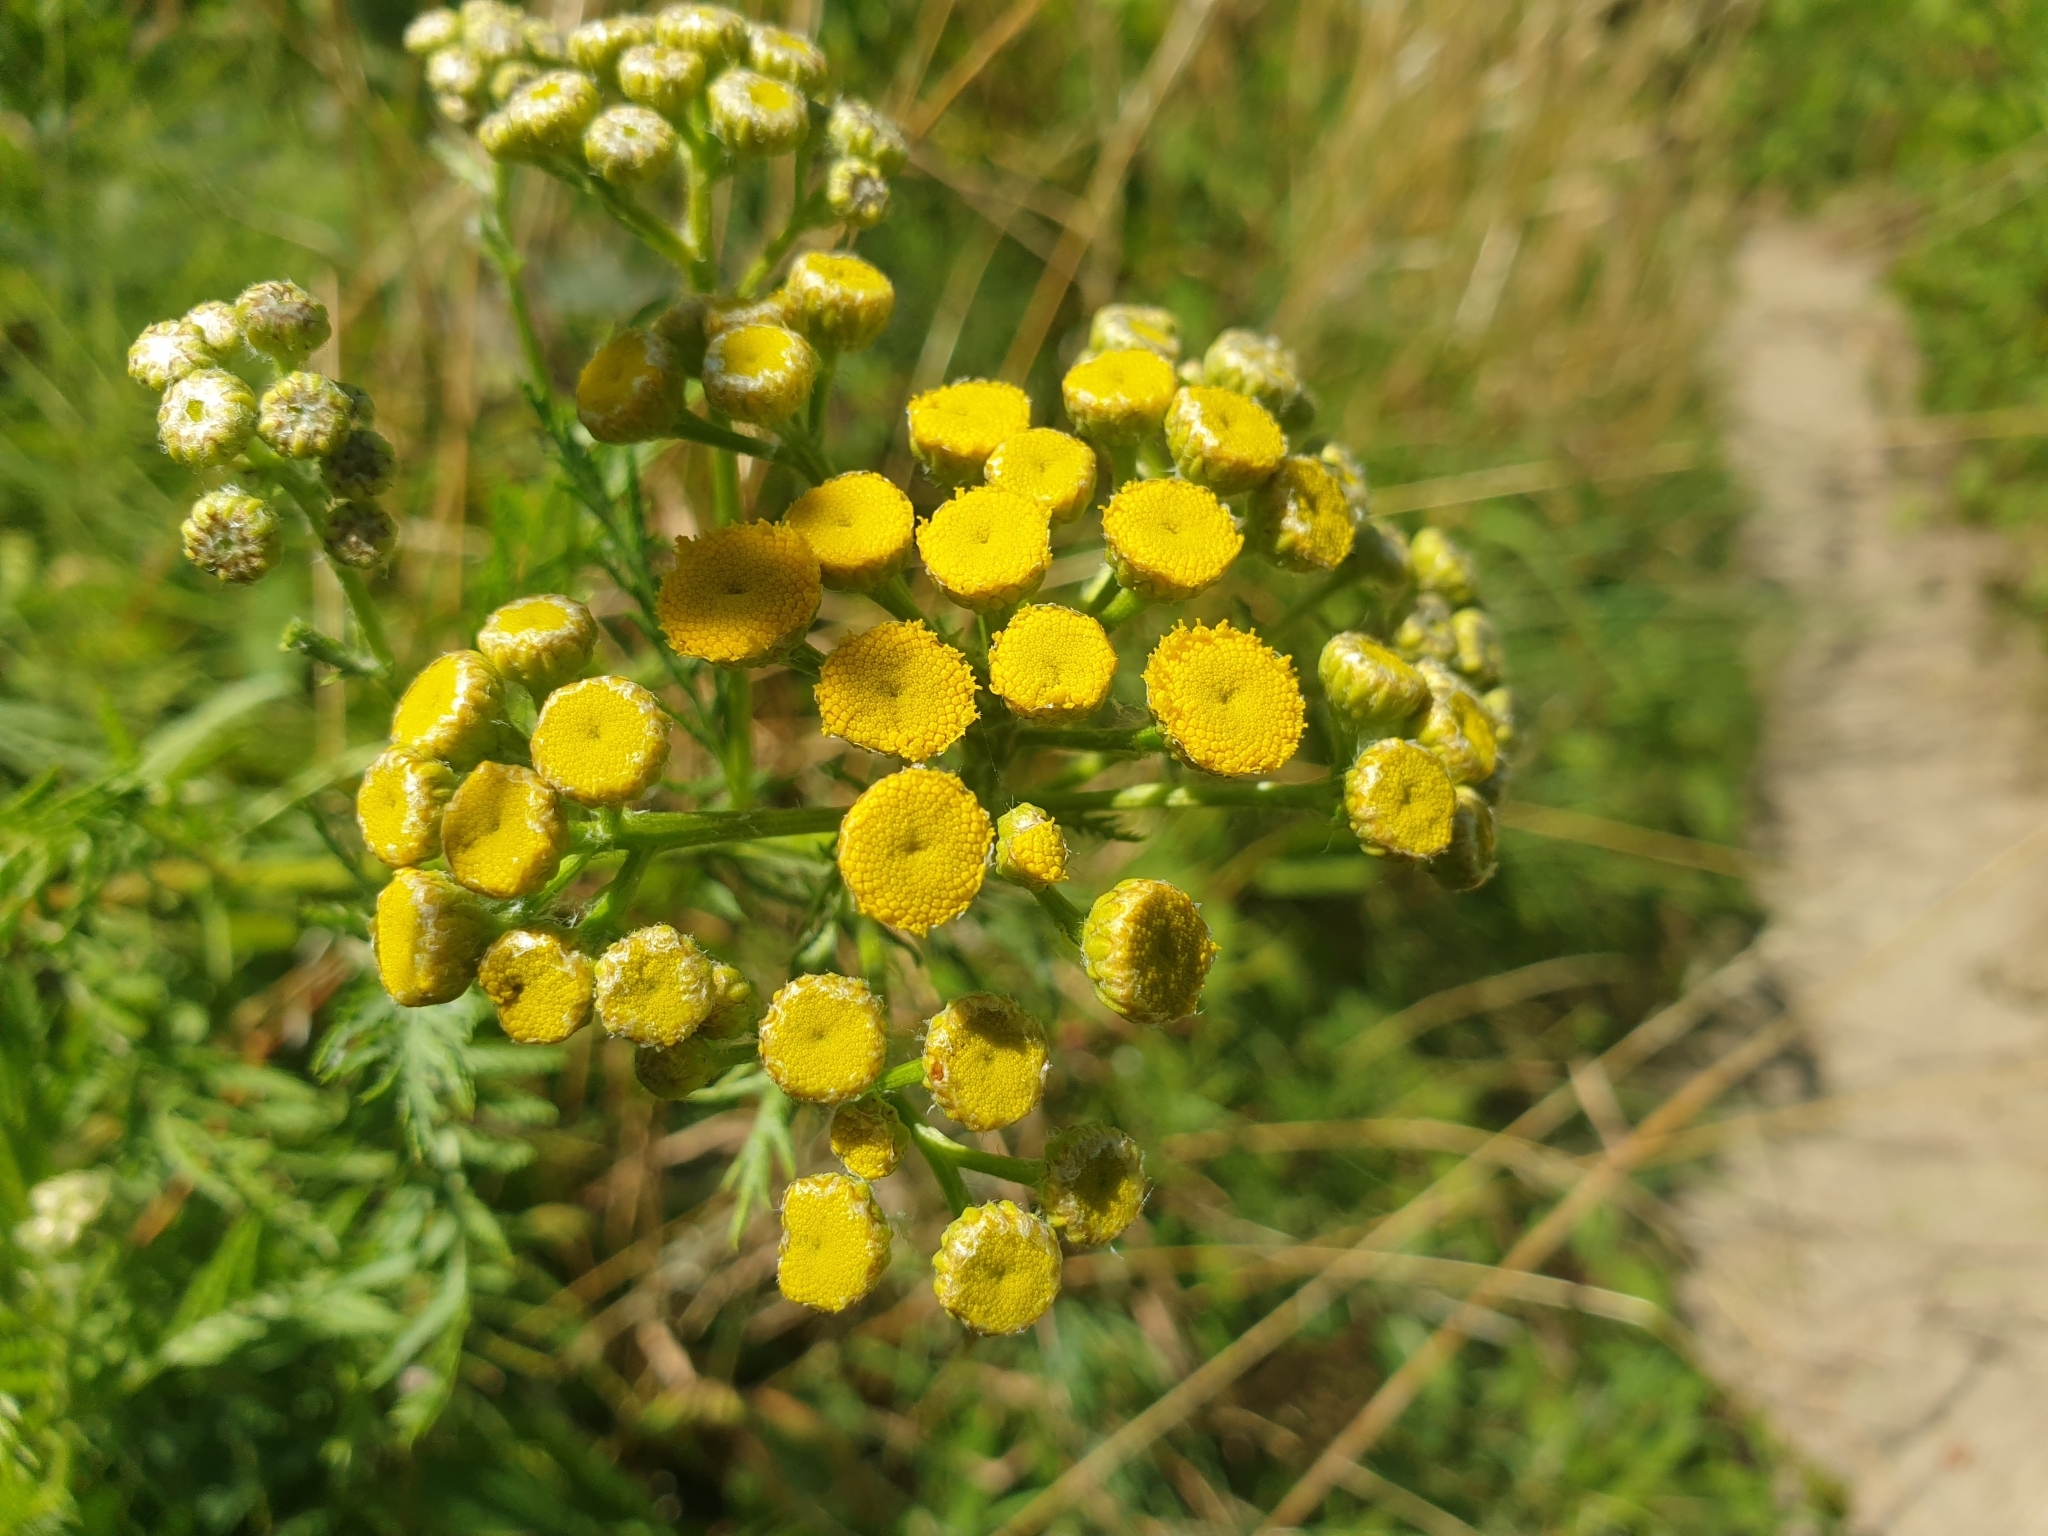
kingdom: Plantae
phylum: Tracheophyta
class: Magnoliopsida
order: Asterales
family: Asteraceae
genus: Tanacetum
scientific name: Tanacetum vulgare
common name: Common tansy
